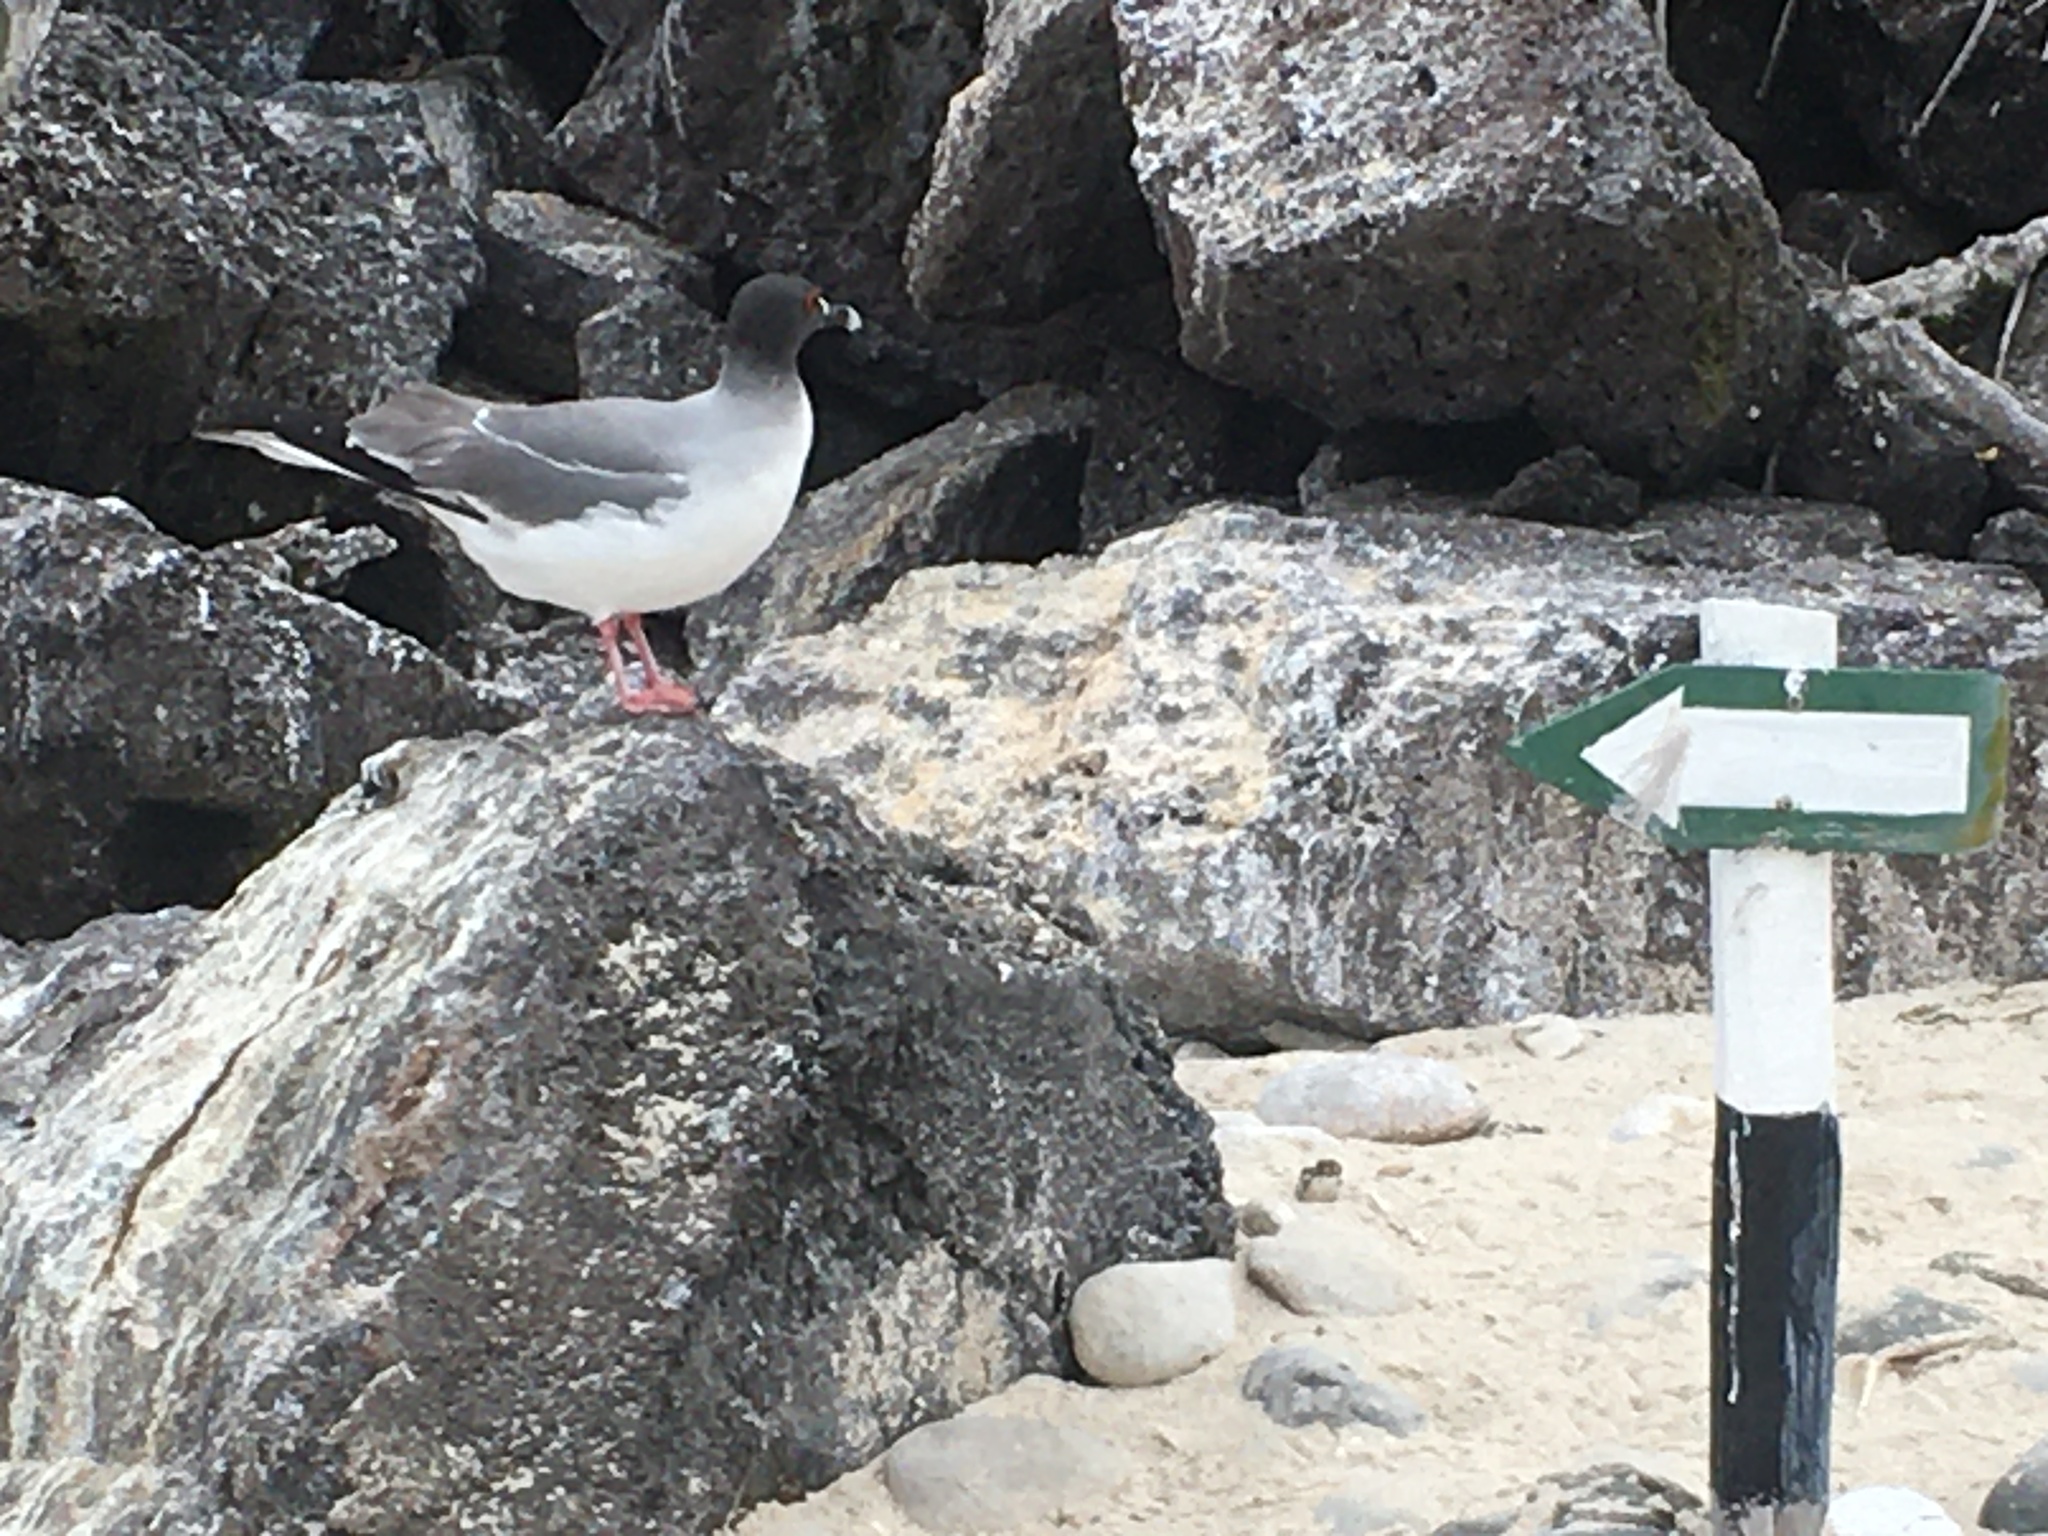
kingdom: Animalia
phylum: Chordata
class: Aves
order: Charadriiformes
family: Laridae
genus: Creagrus
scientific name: Creagrus furcatus
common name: Swallow-tailed gull
